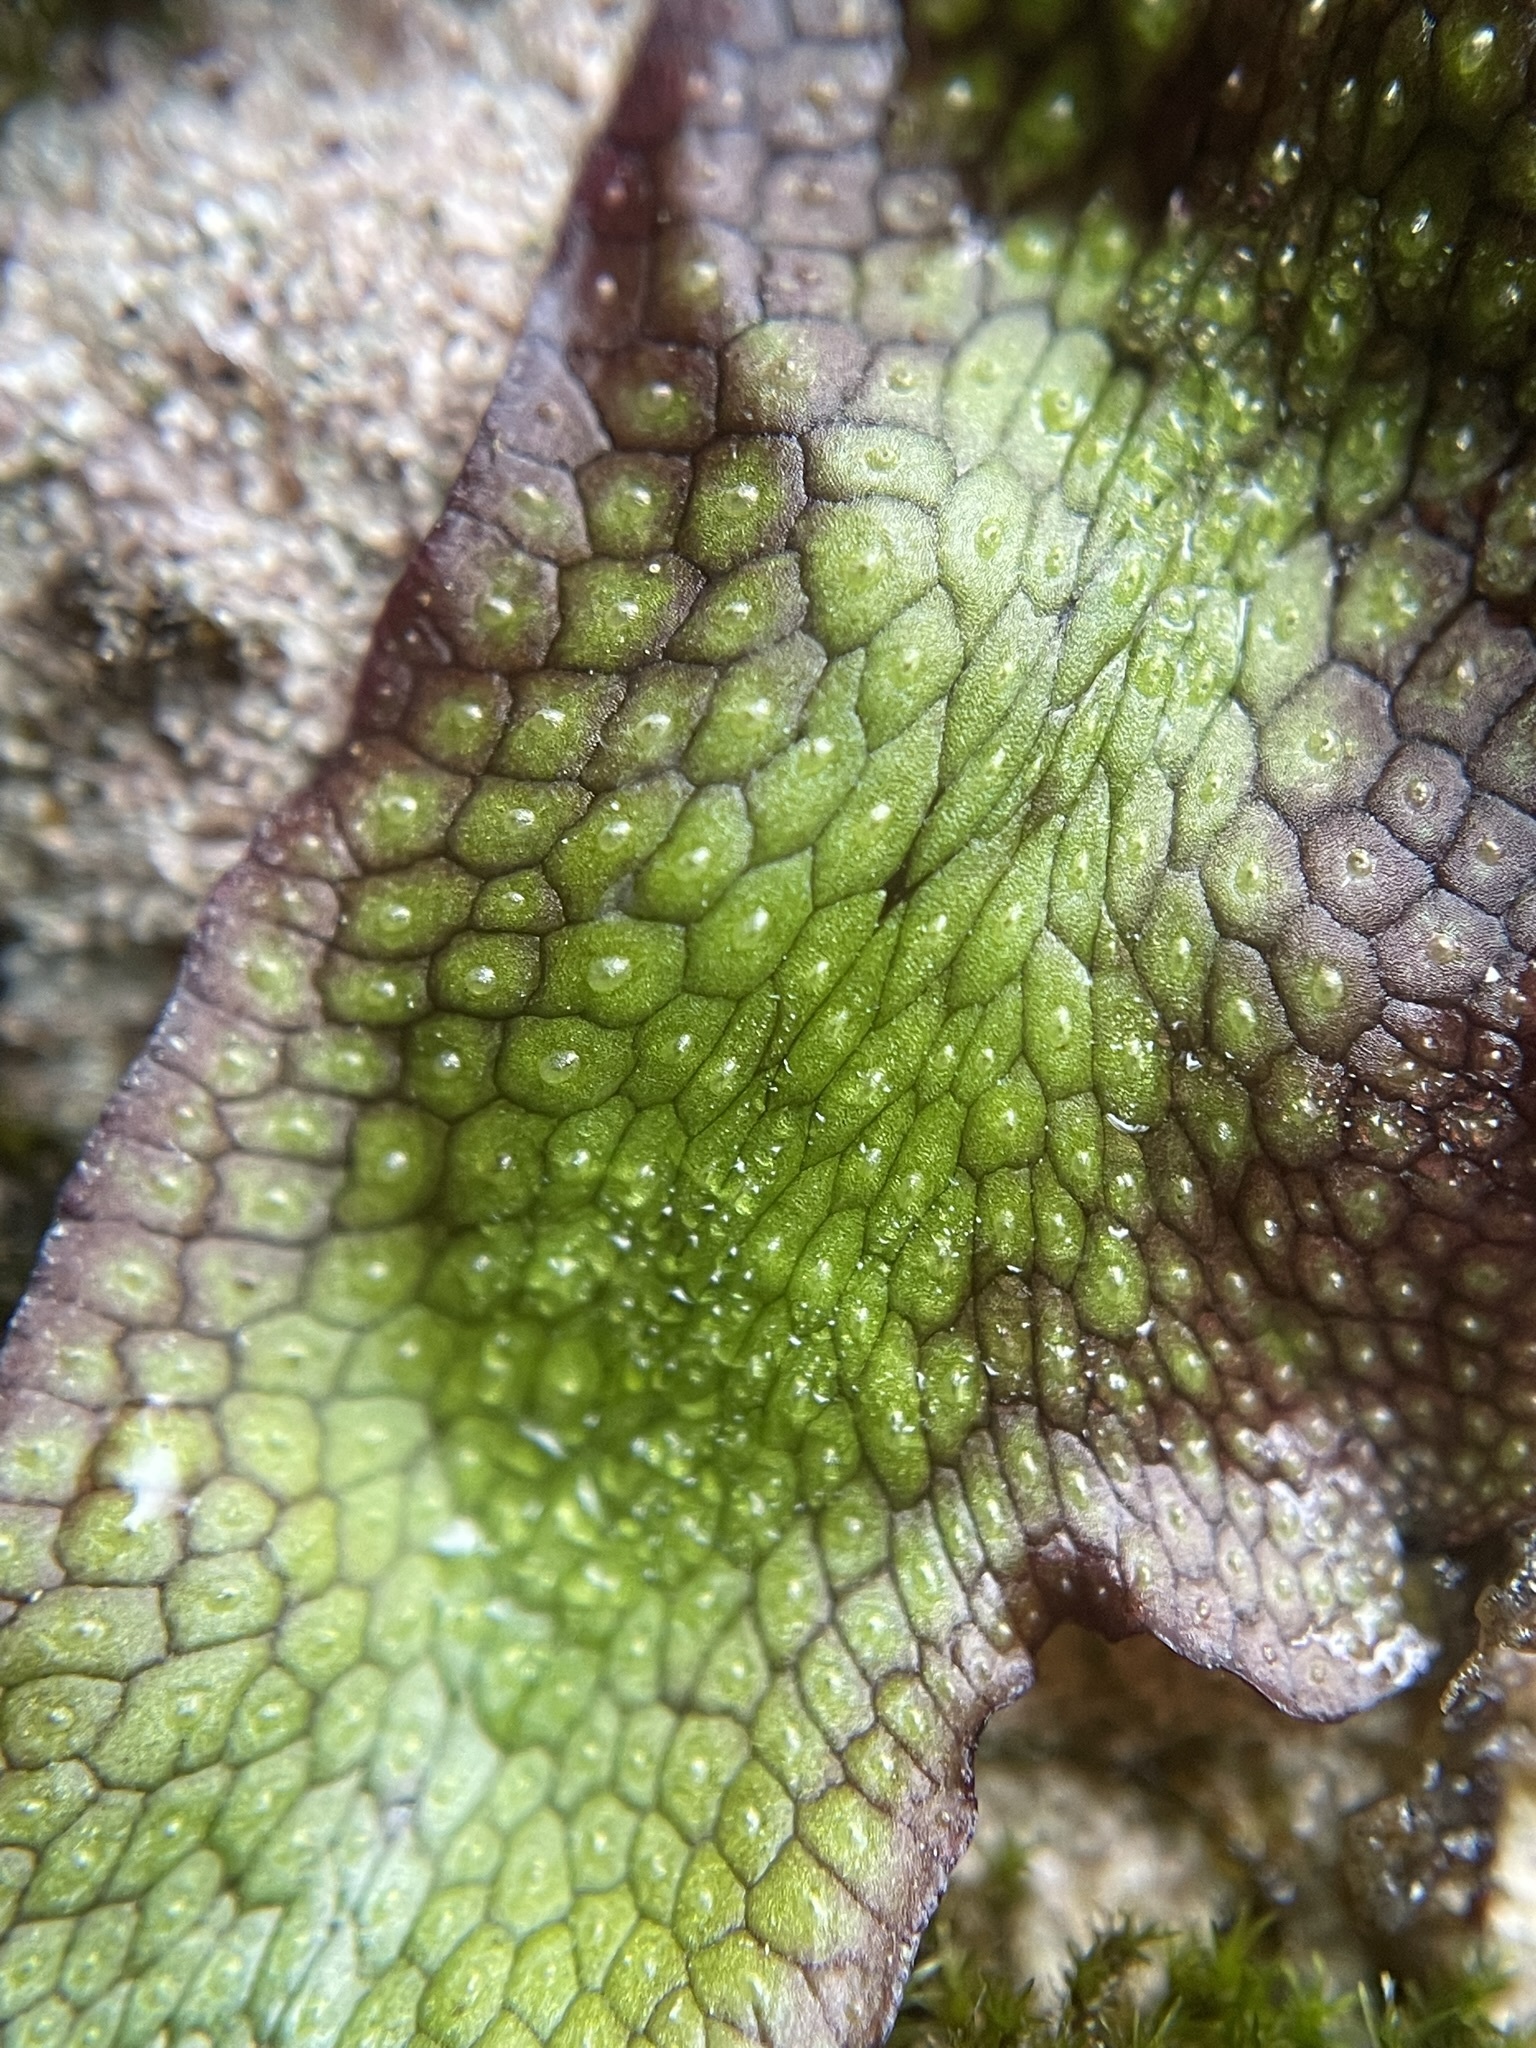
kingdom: Plantae
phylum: Marchantiophyta
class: Marchantiopsida
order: Marchantiales
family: Conocephalaceae
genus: Conocephalum
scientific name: Conocephalum salebrosum
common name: Cat-tongue liverwort
